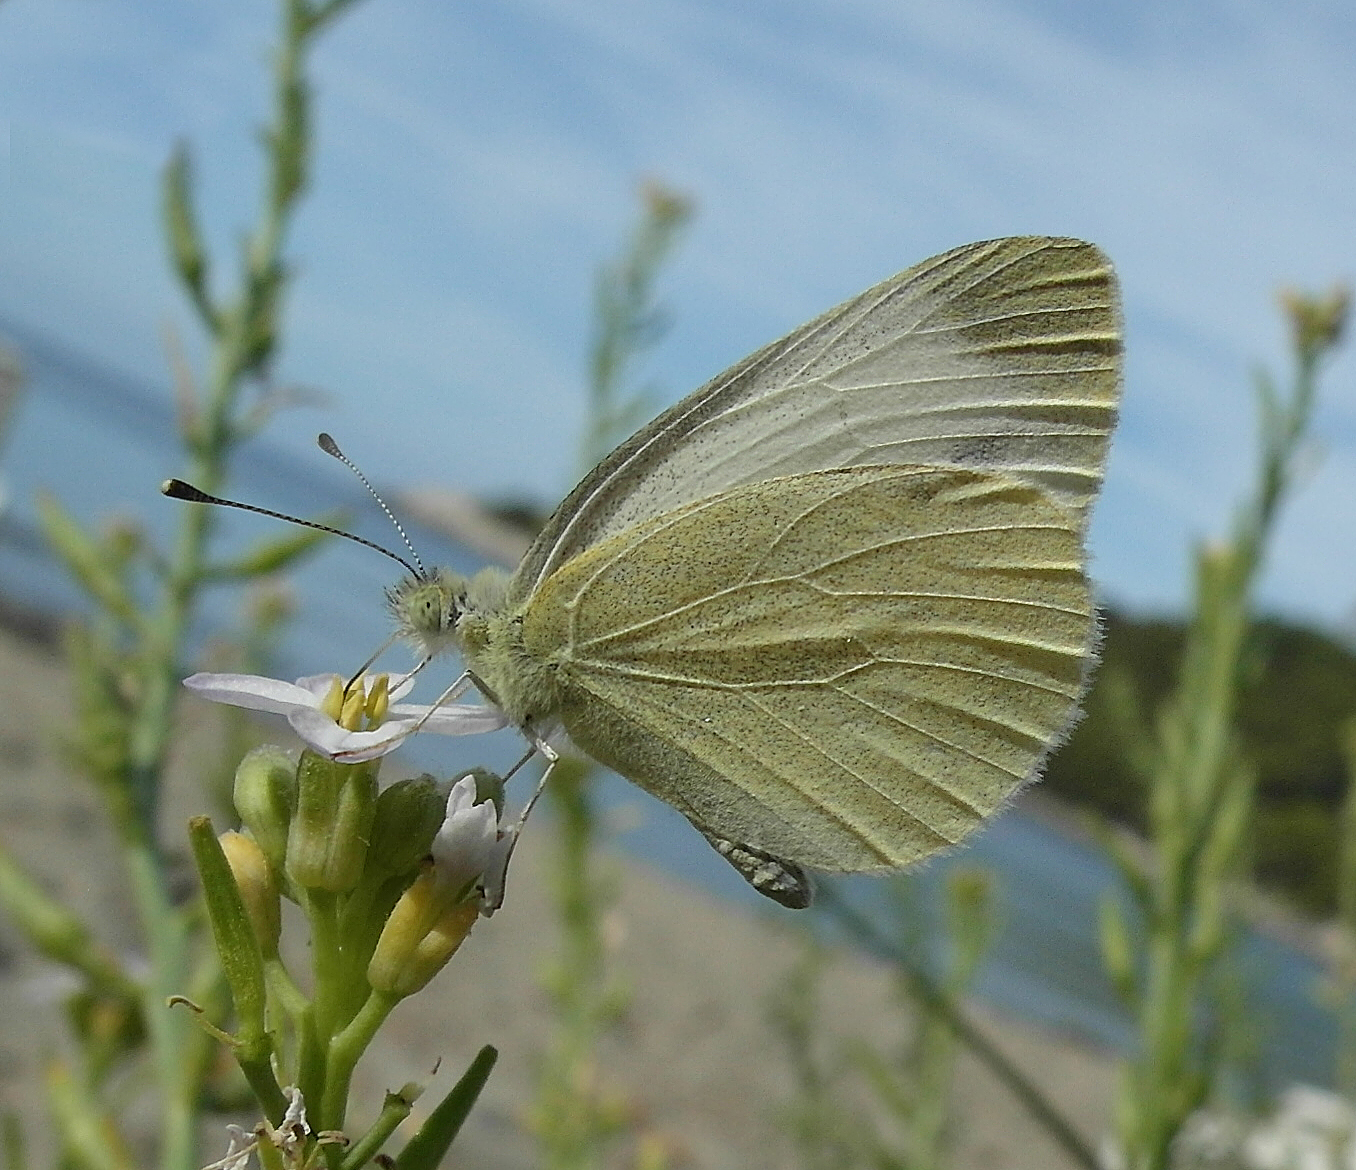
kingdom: Animalia
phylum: Arthropoda
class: Insecta
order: Lepidoptera
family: Pieridae
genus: Pieris
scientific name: Pieris rapae
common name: Small white
